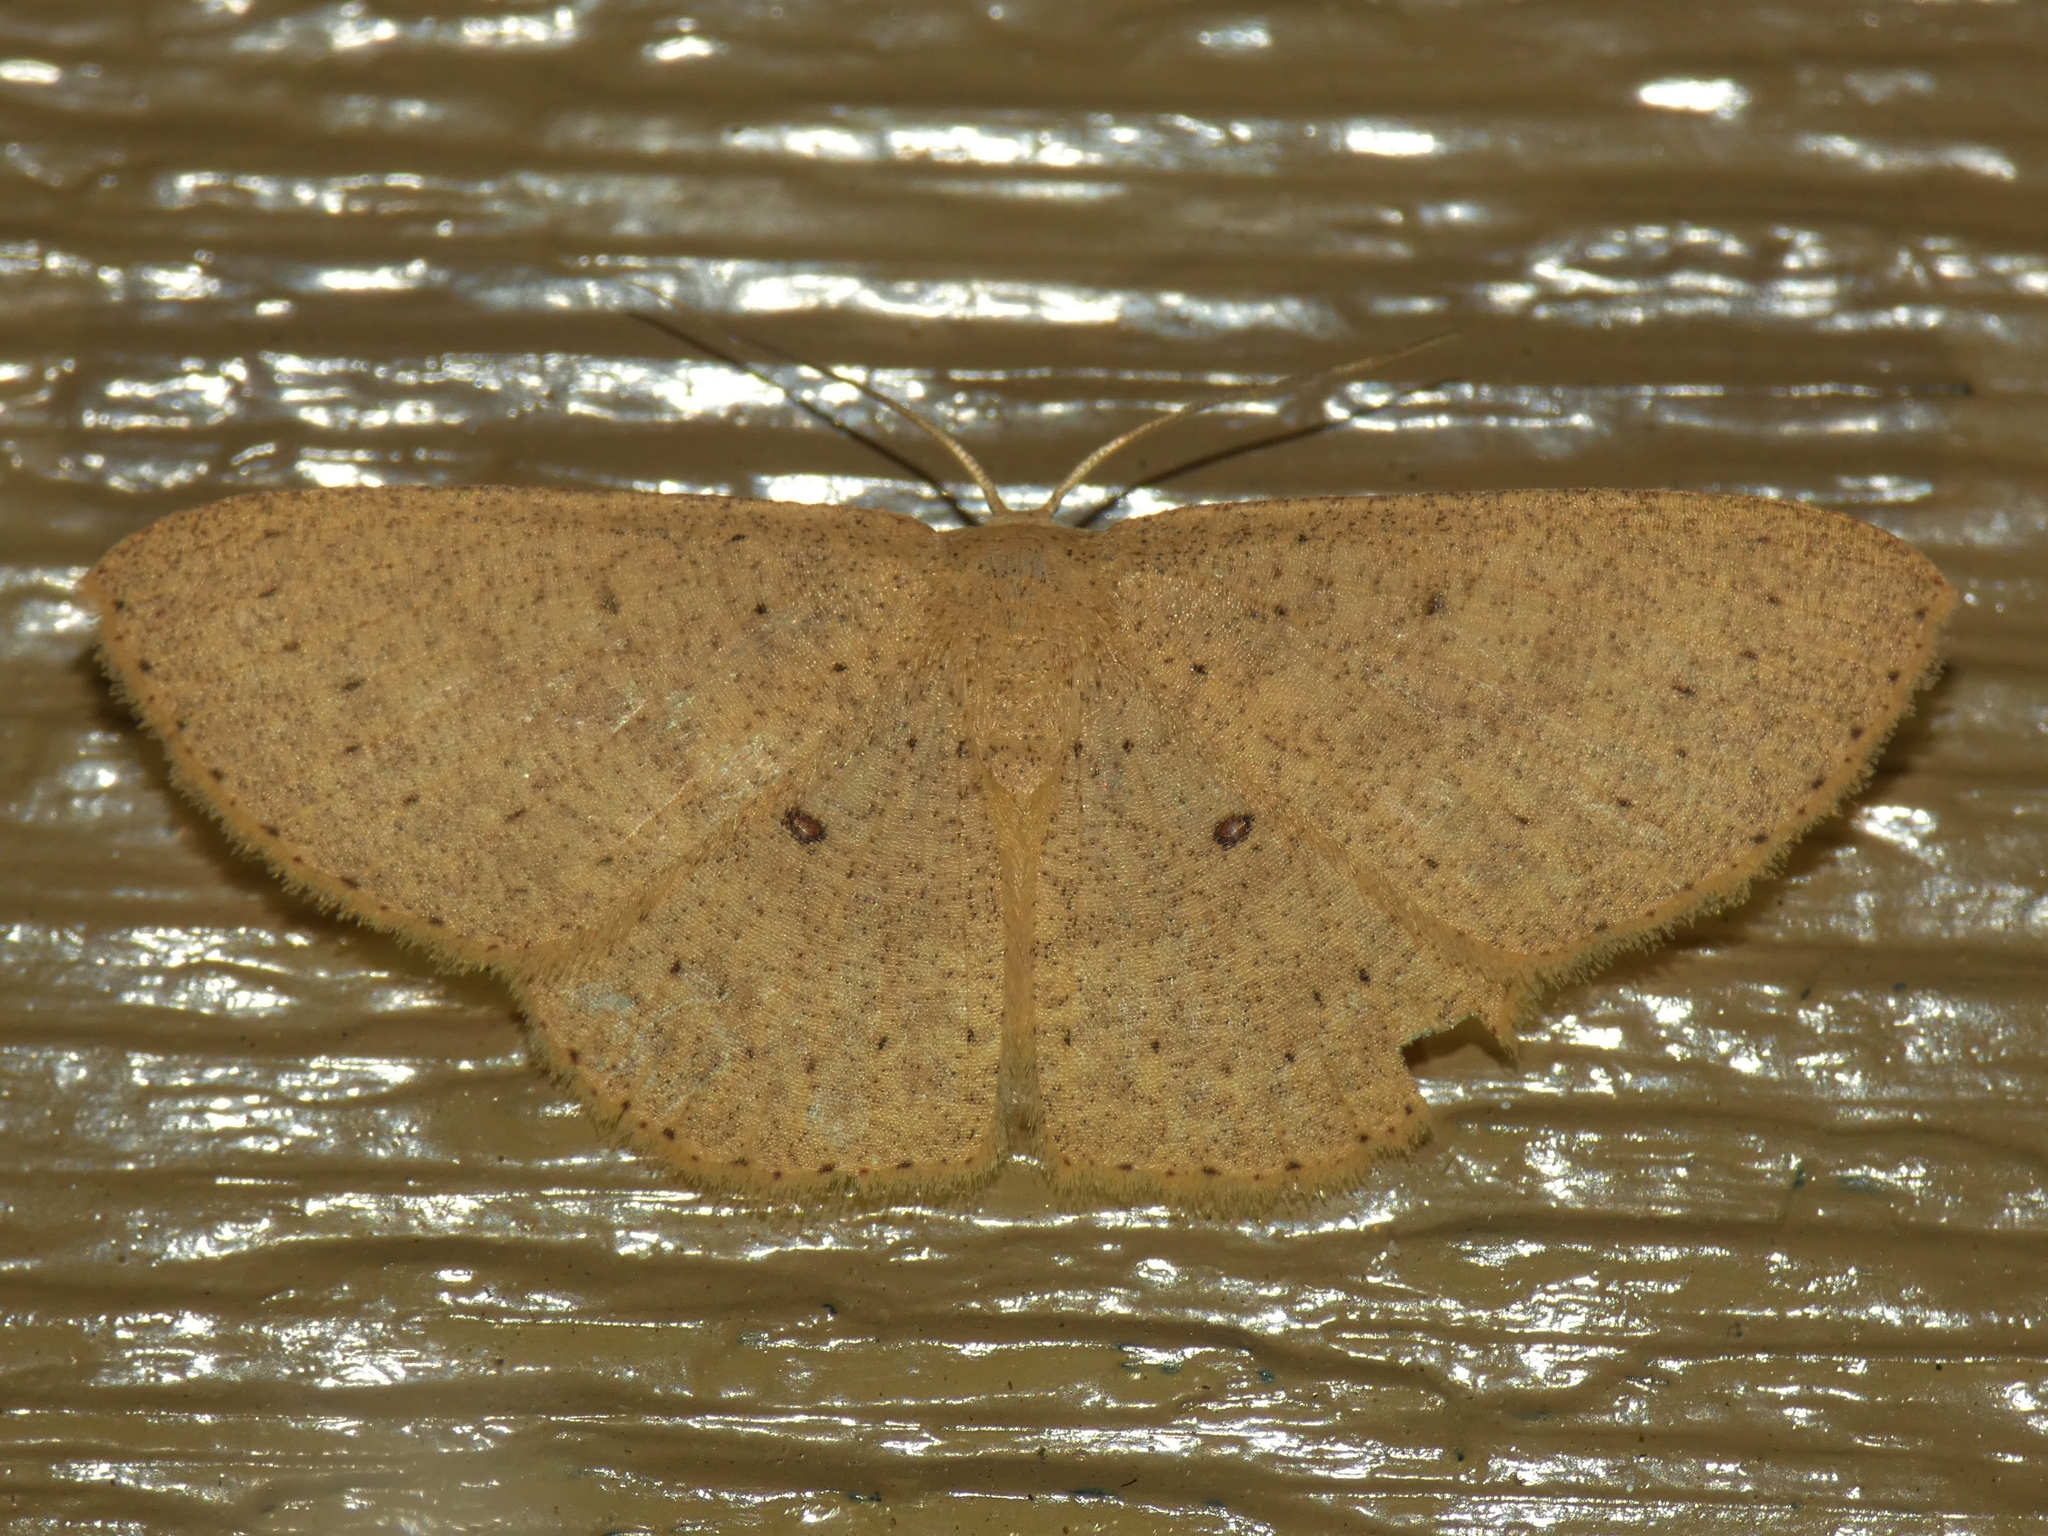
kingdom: Animalia
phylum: Arthropoda
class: Insecta
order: Lepidoptera
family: Geometridae
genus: Cyclophora
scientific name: Cyclophora obstataria
